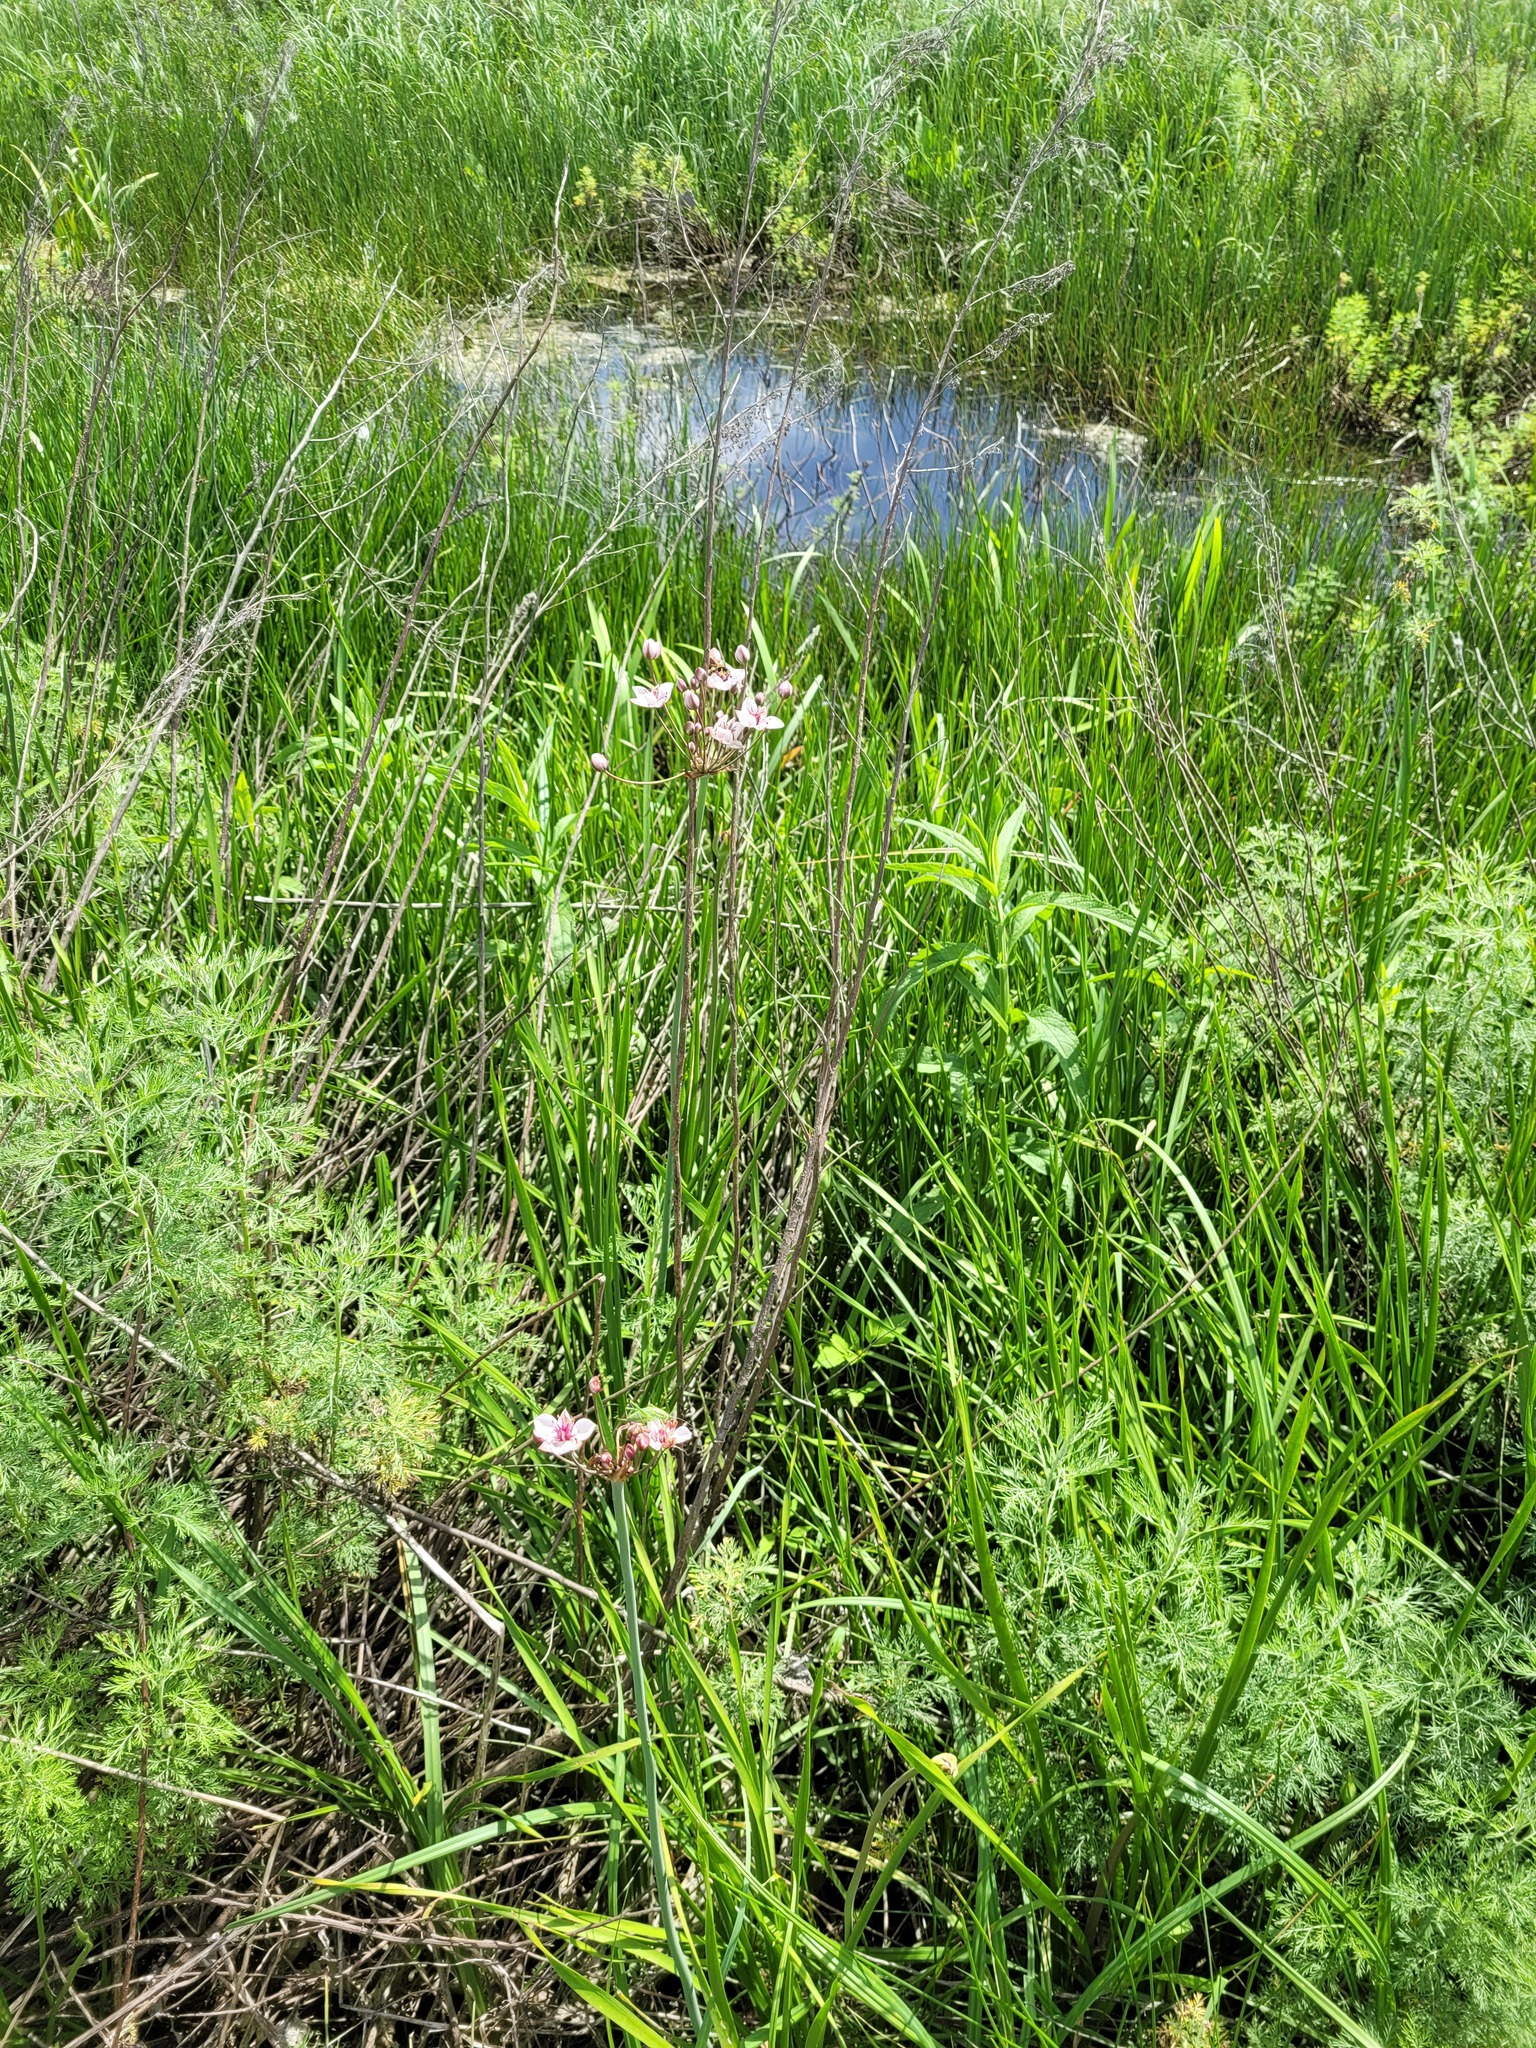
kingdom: Plantae
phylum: Tracheophyta
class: Liliopsida
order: Alismatales
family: Butomaceae
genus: Butomus
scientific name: Butomus umbellatus
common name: Flowering-rush
